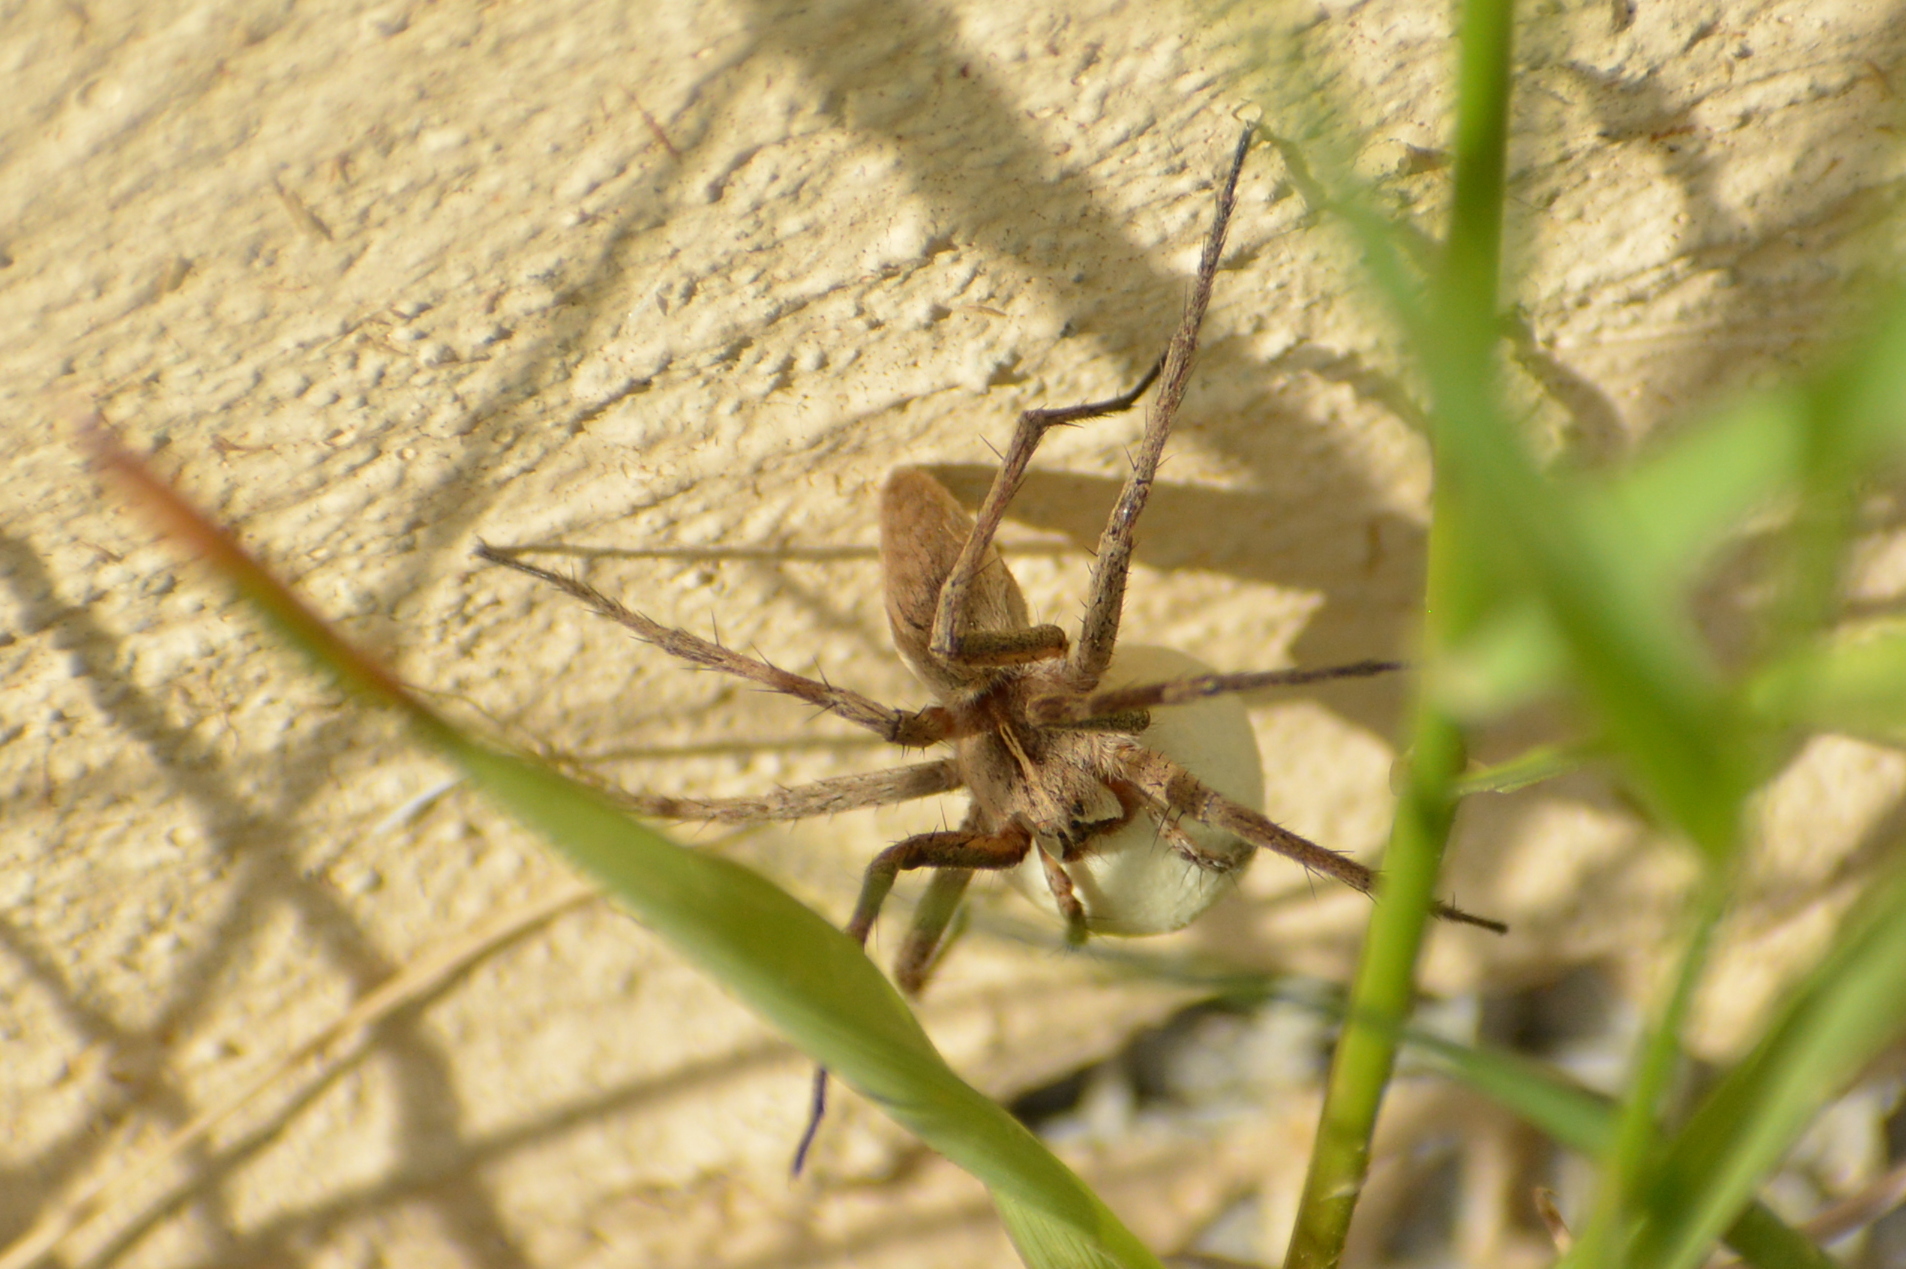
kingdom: Animalia
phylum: Arthropoda
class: Arachnida
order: Araneae
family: Pisauridae
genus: Pisaura
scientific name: Pisaura mirabilis
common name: Tent spider
